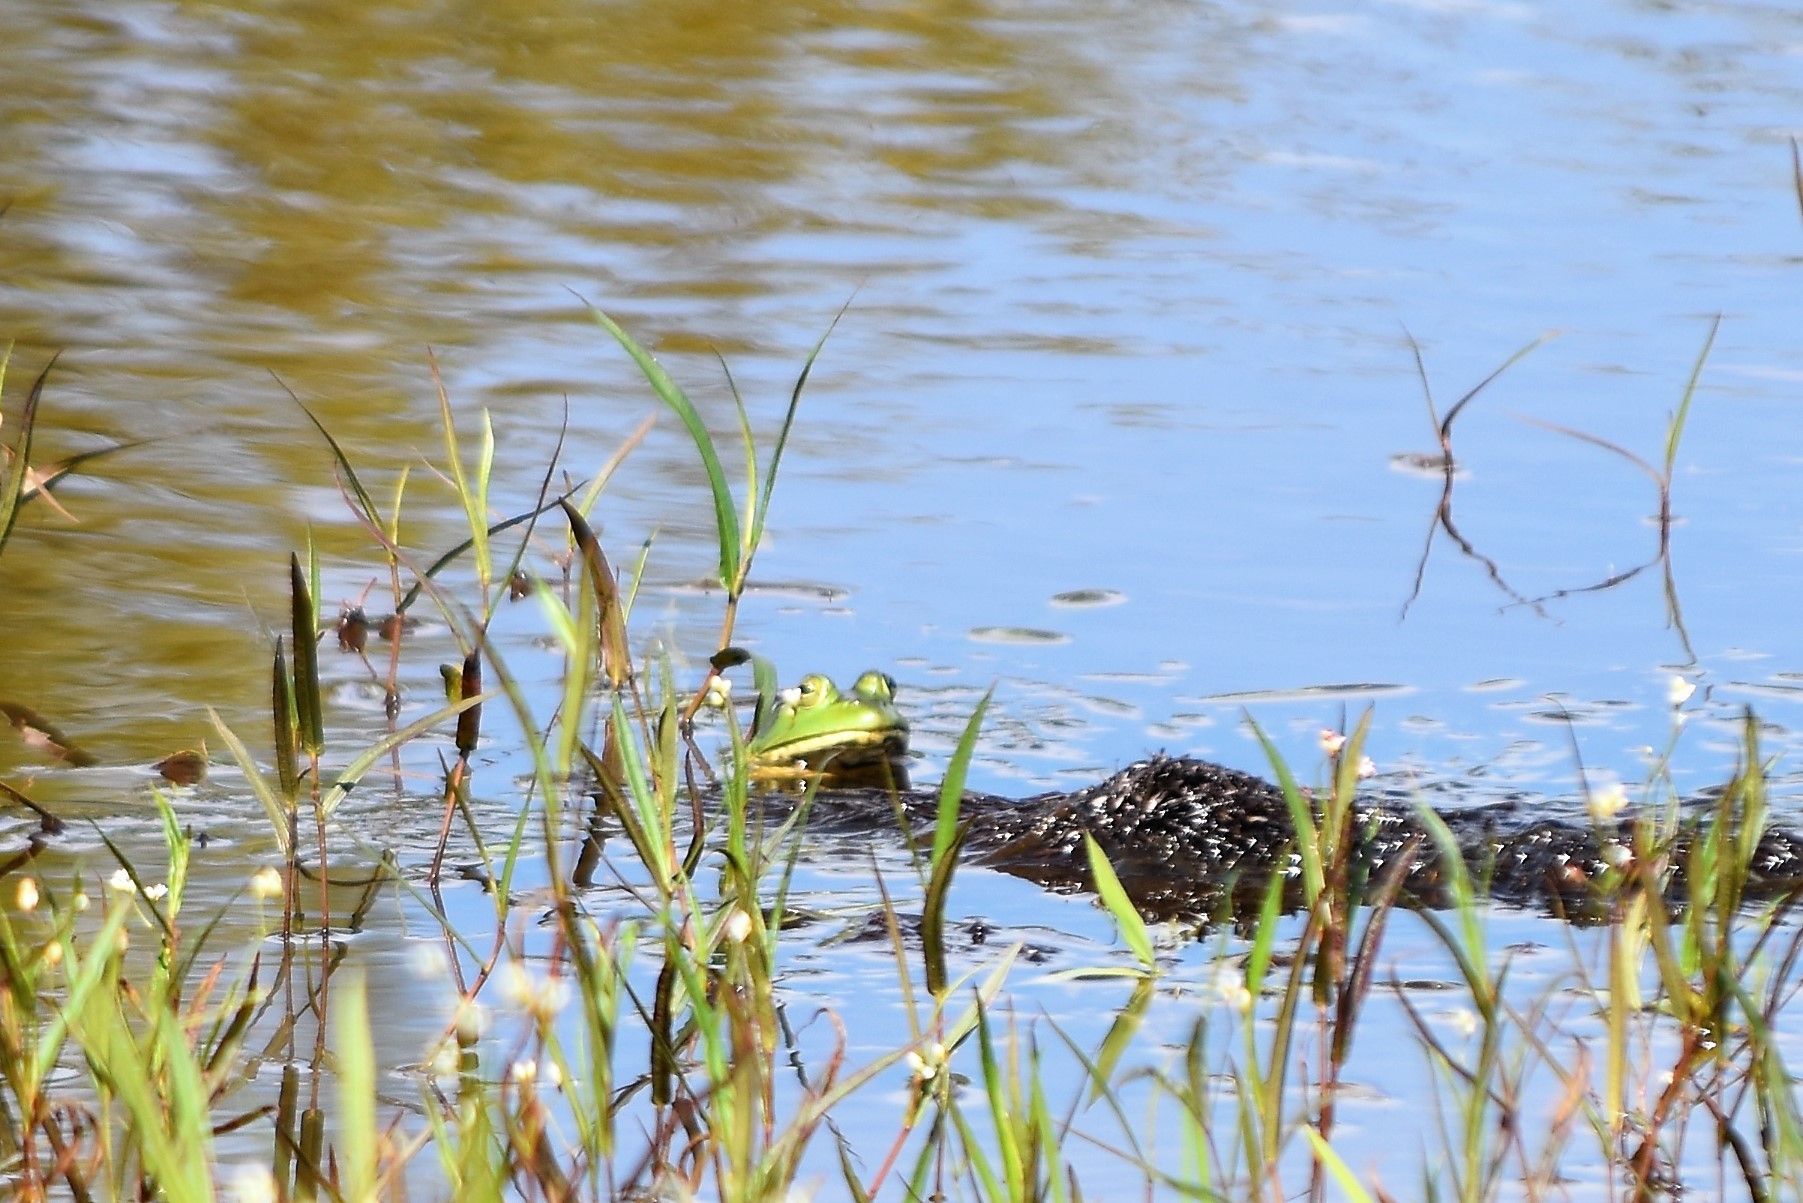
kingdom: Animalia
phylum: Chordata
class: Amphibia
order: Anura
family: Ranidae
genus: Lithobates
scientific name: Lithobates catesbeianus
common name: American bullfrog
